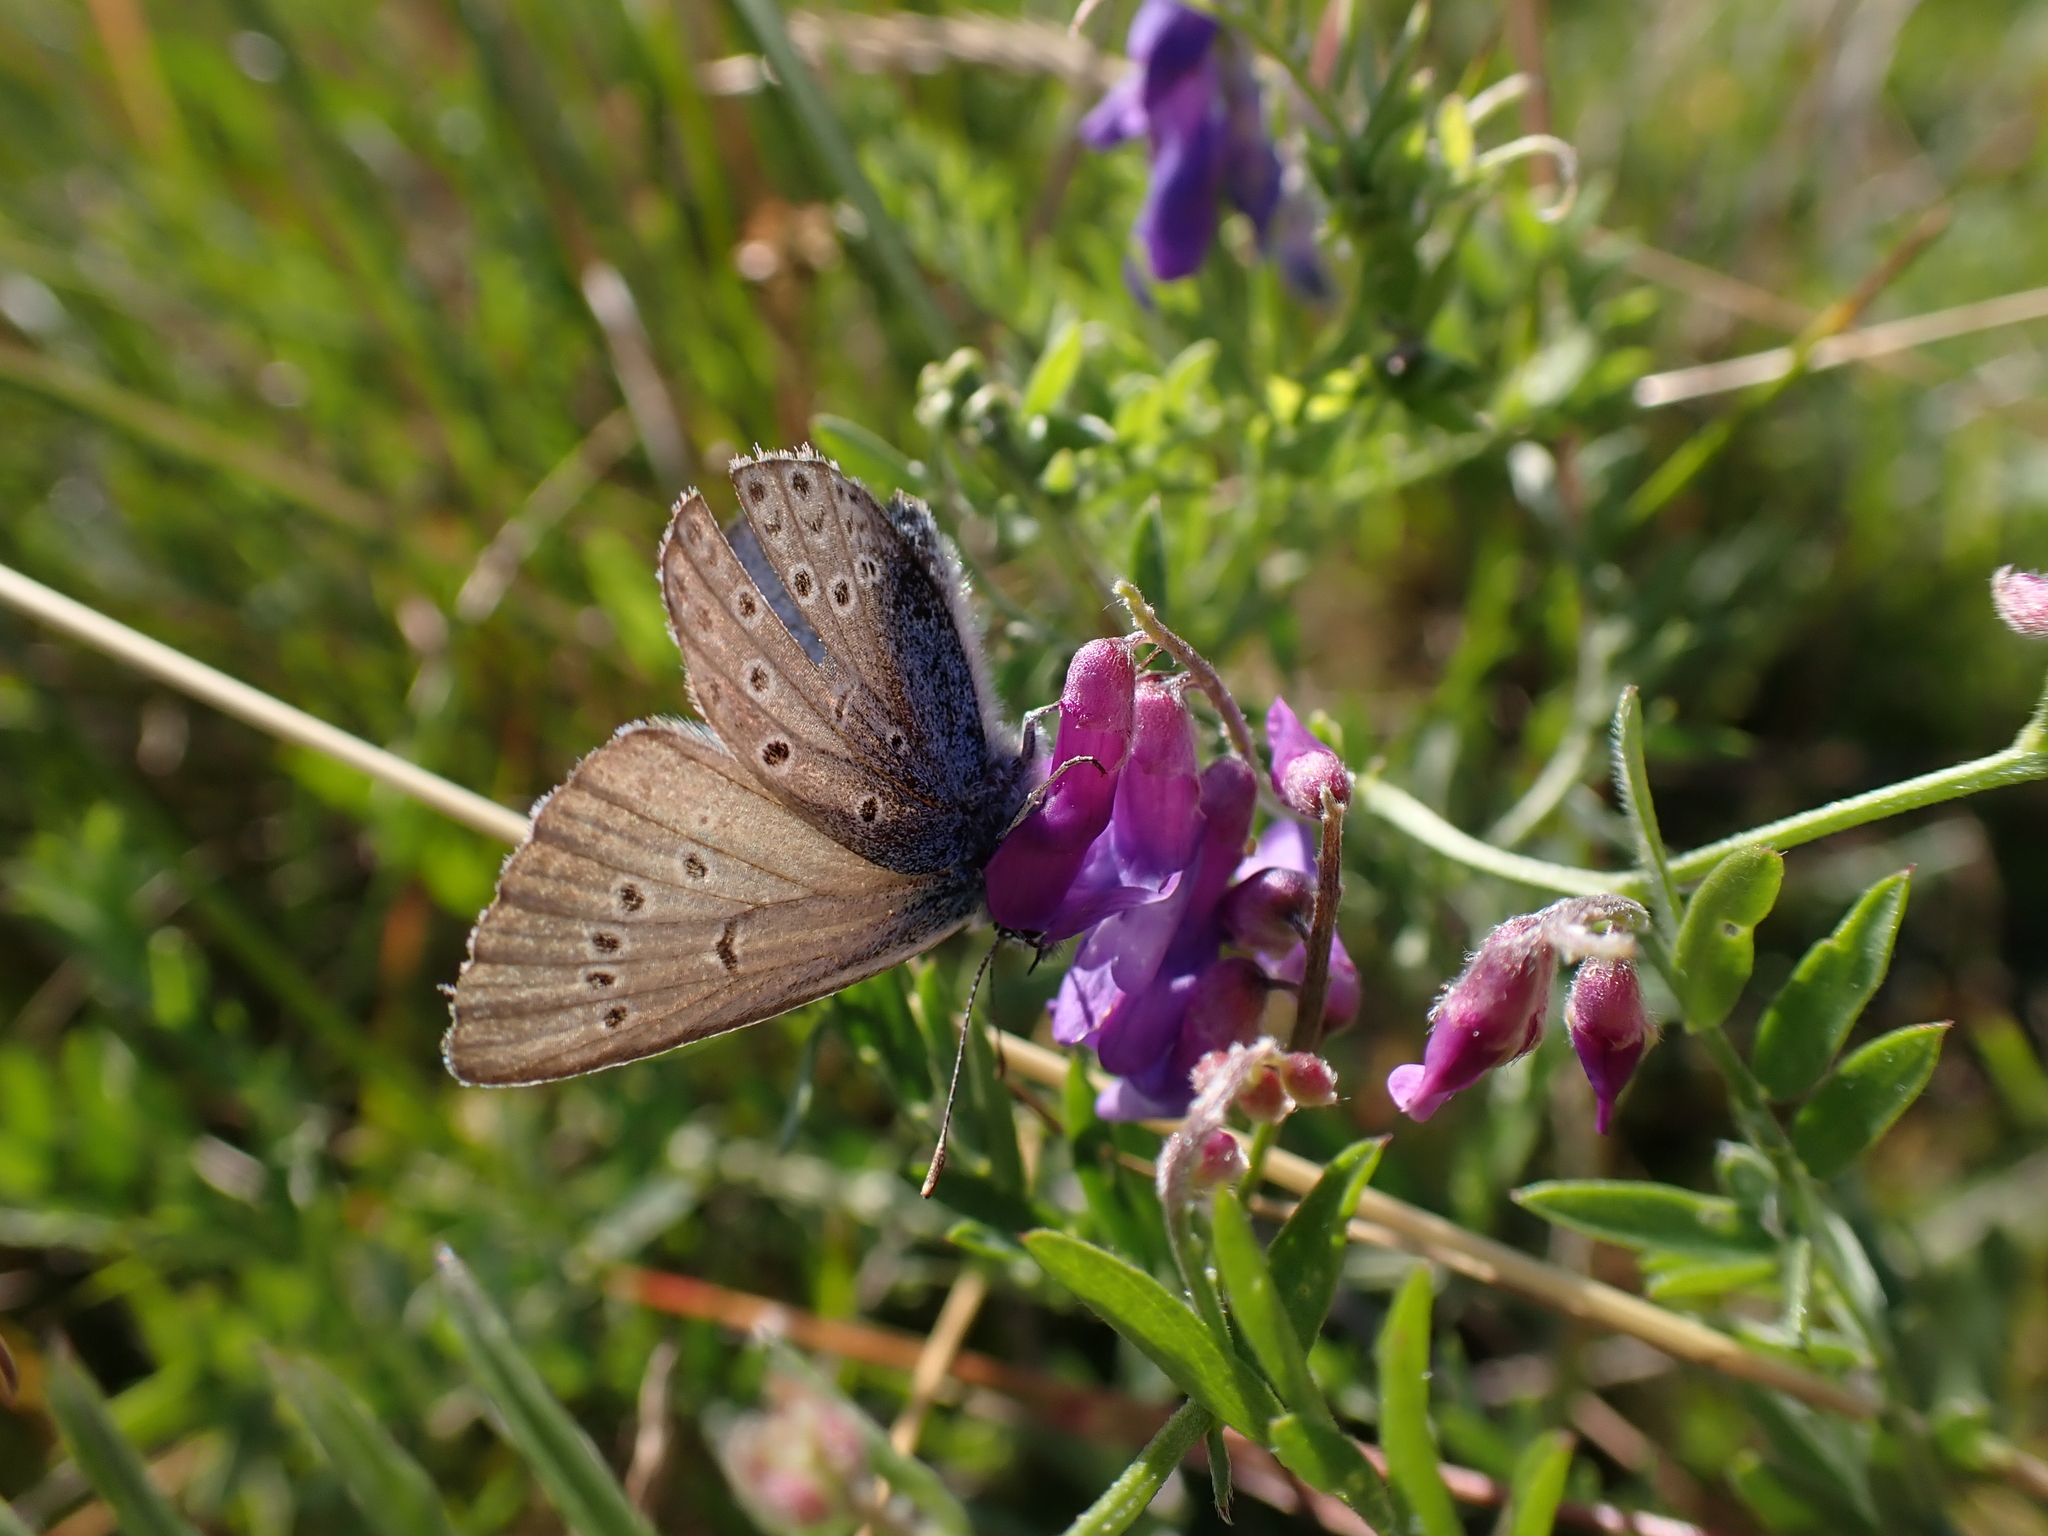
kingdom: Animalia
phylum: Arthropoda
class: Insecta
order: Lepidoptera
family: Lycaenidae
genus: Plebejus
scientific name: Plebejus amanda
